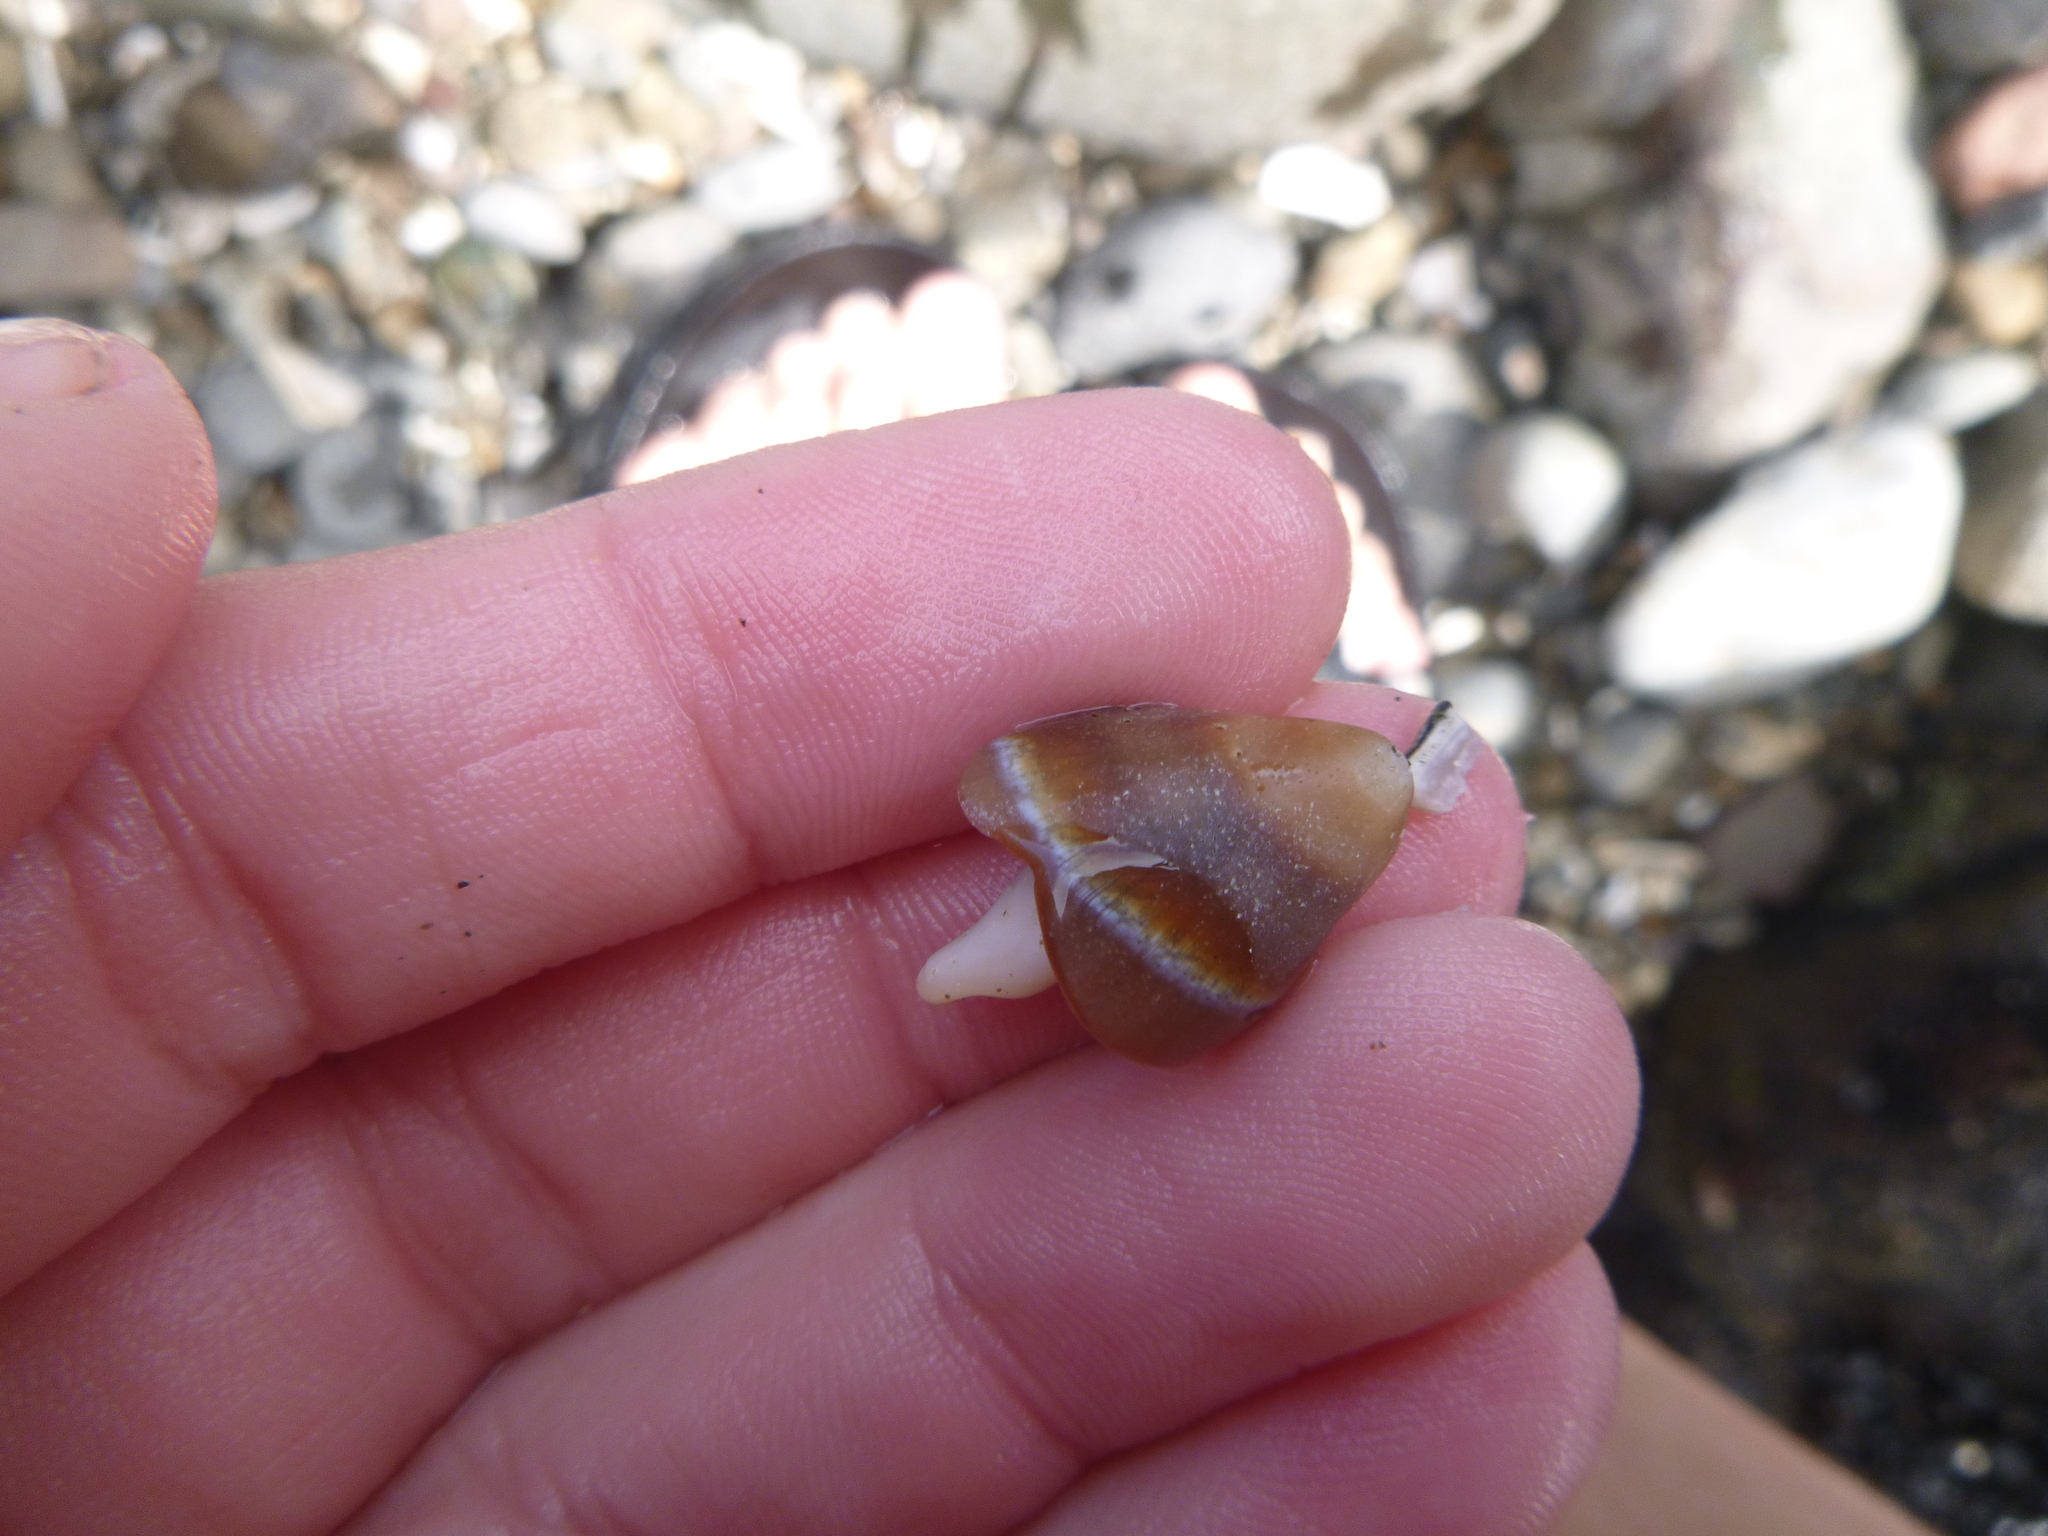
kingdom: Animalia
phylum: Mollusca
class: Gastropoda
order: Neogastropoda
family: Ancillariidae
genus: Amalda
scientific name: Amalda australis
